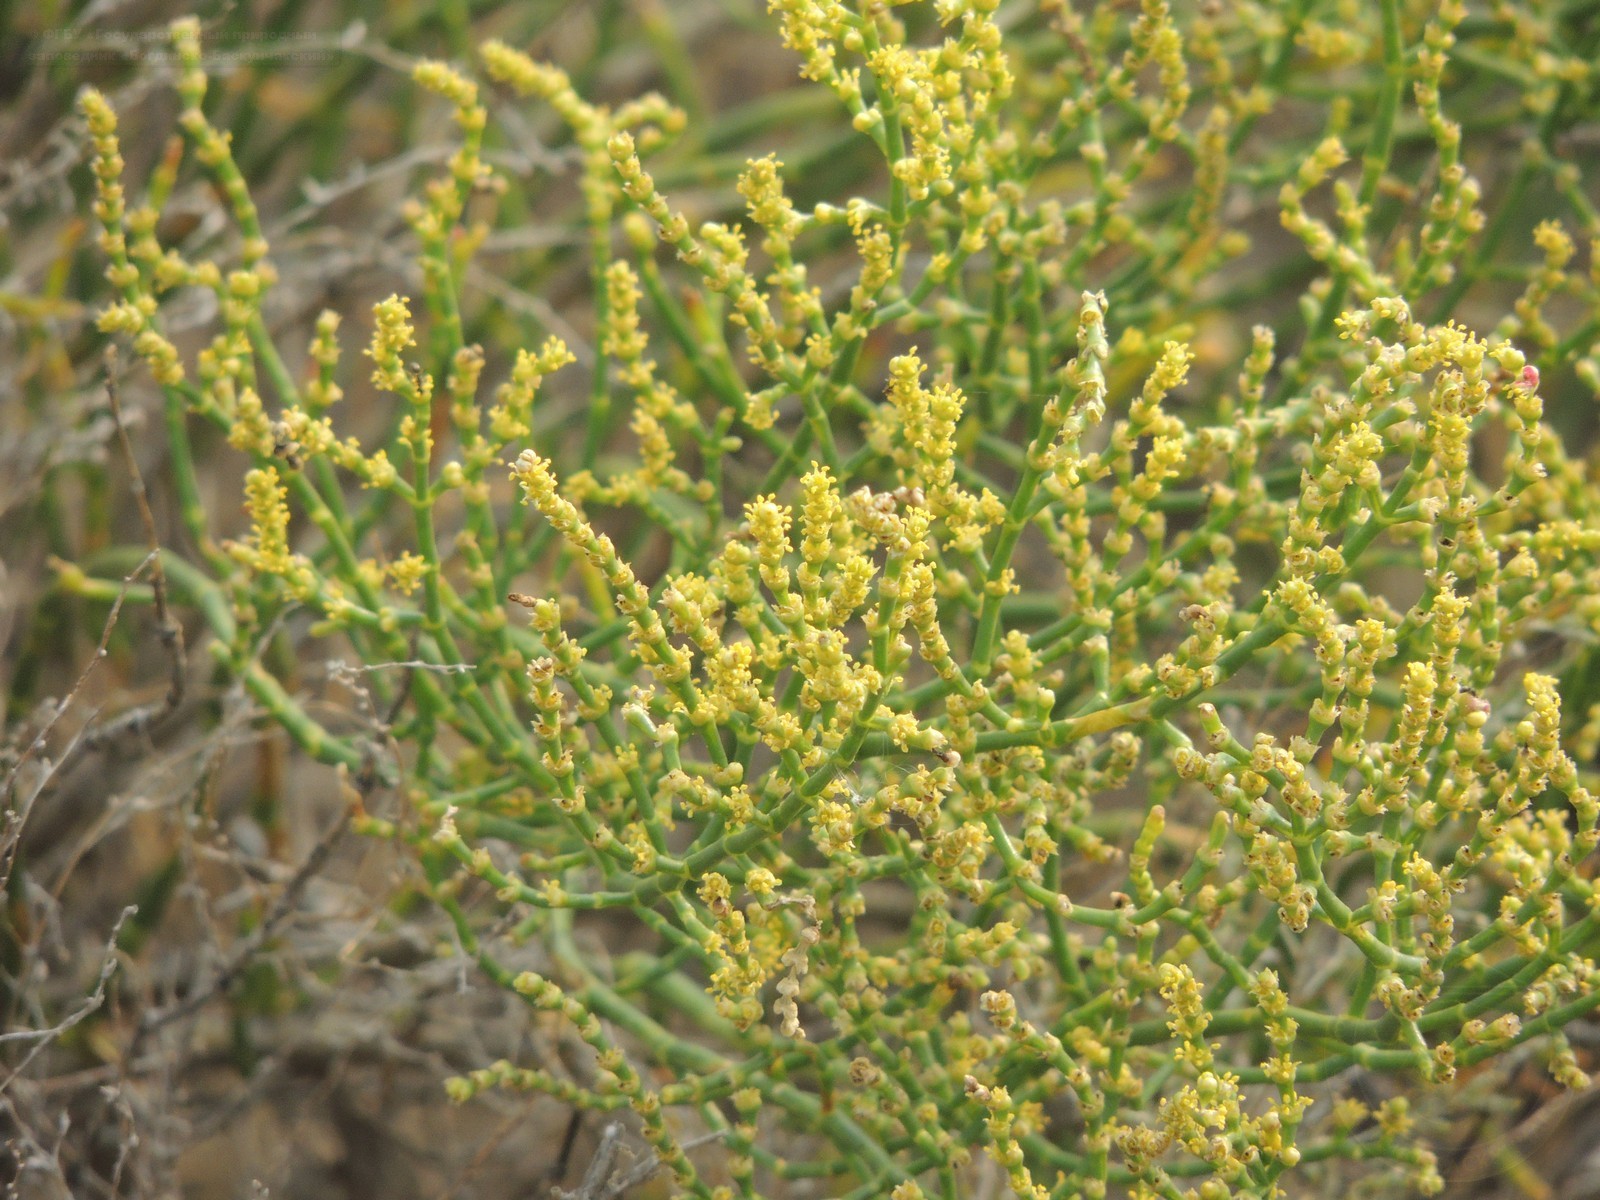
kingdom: Plantae
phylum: Tracheophyta
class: Magnoliopsida
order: Caryophyllales
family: Amaranthaceae
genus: Anabasis
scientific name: Anabasis aphylla
